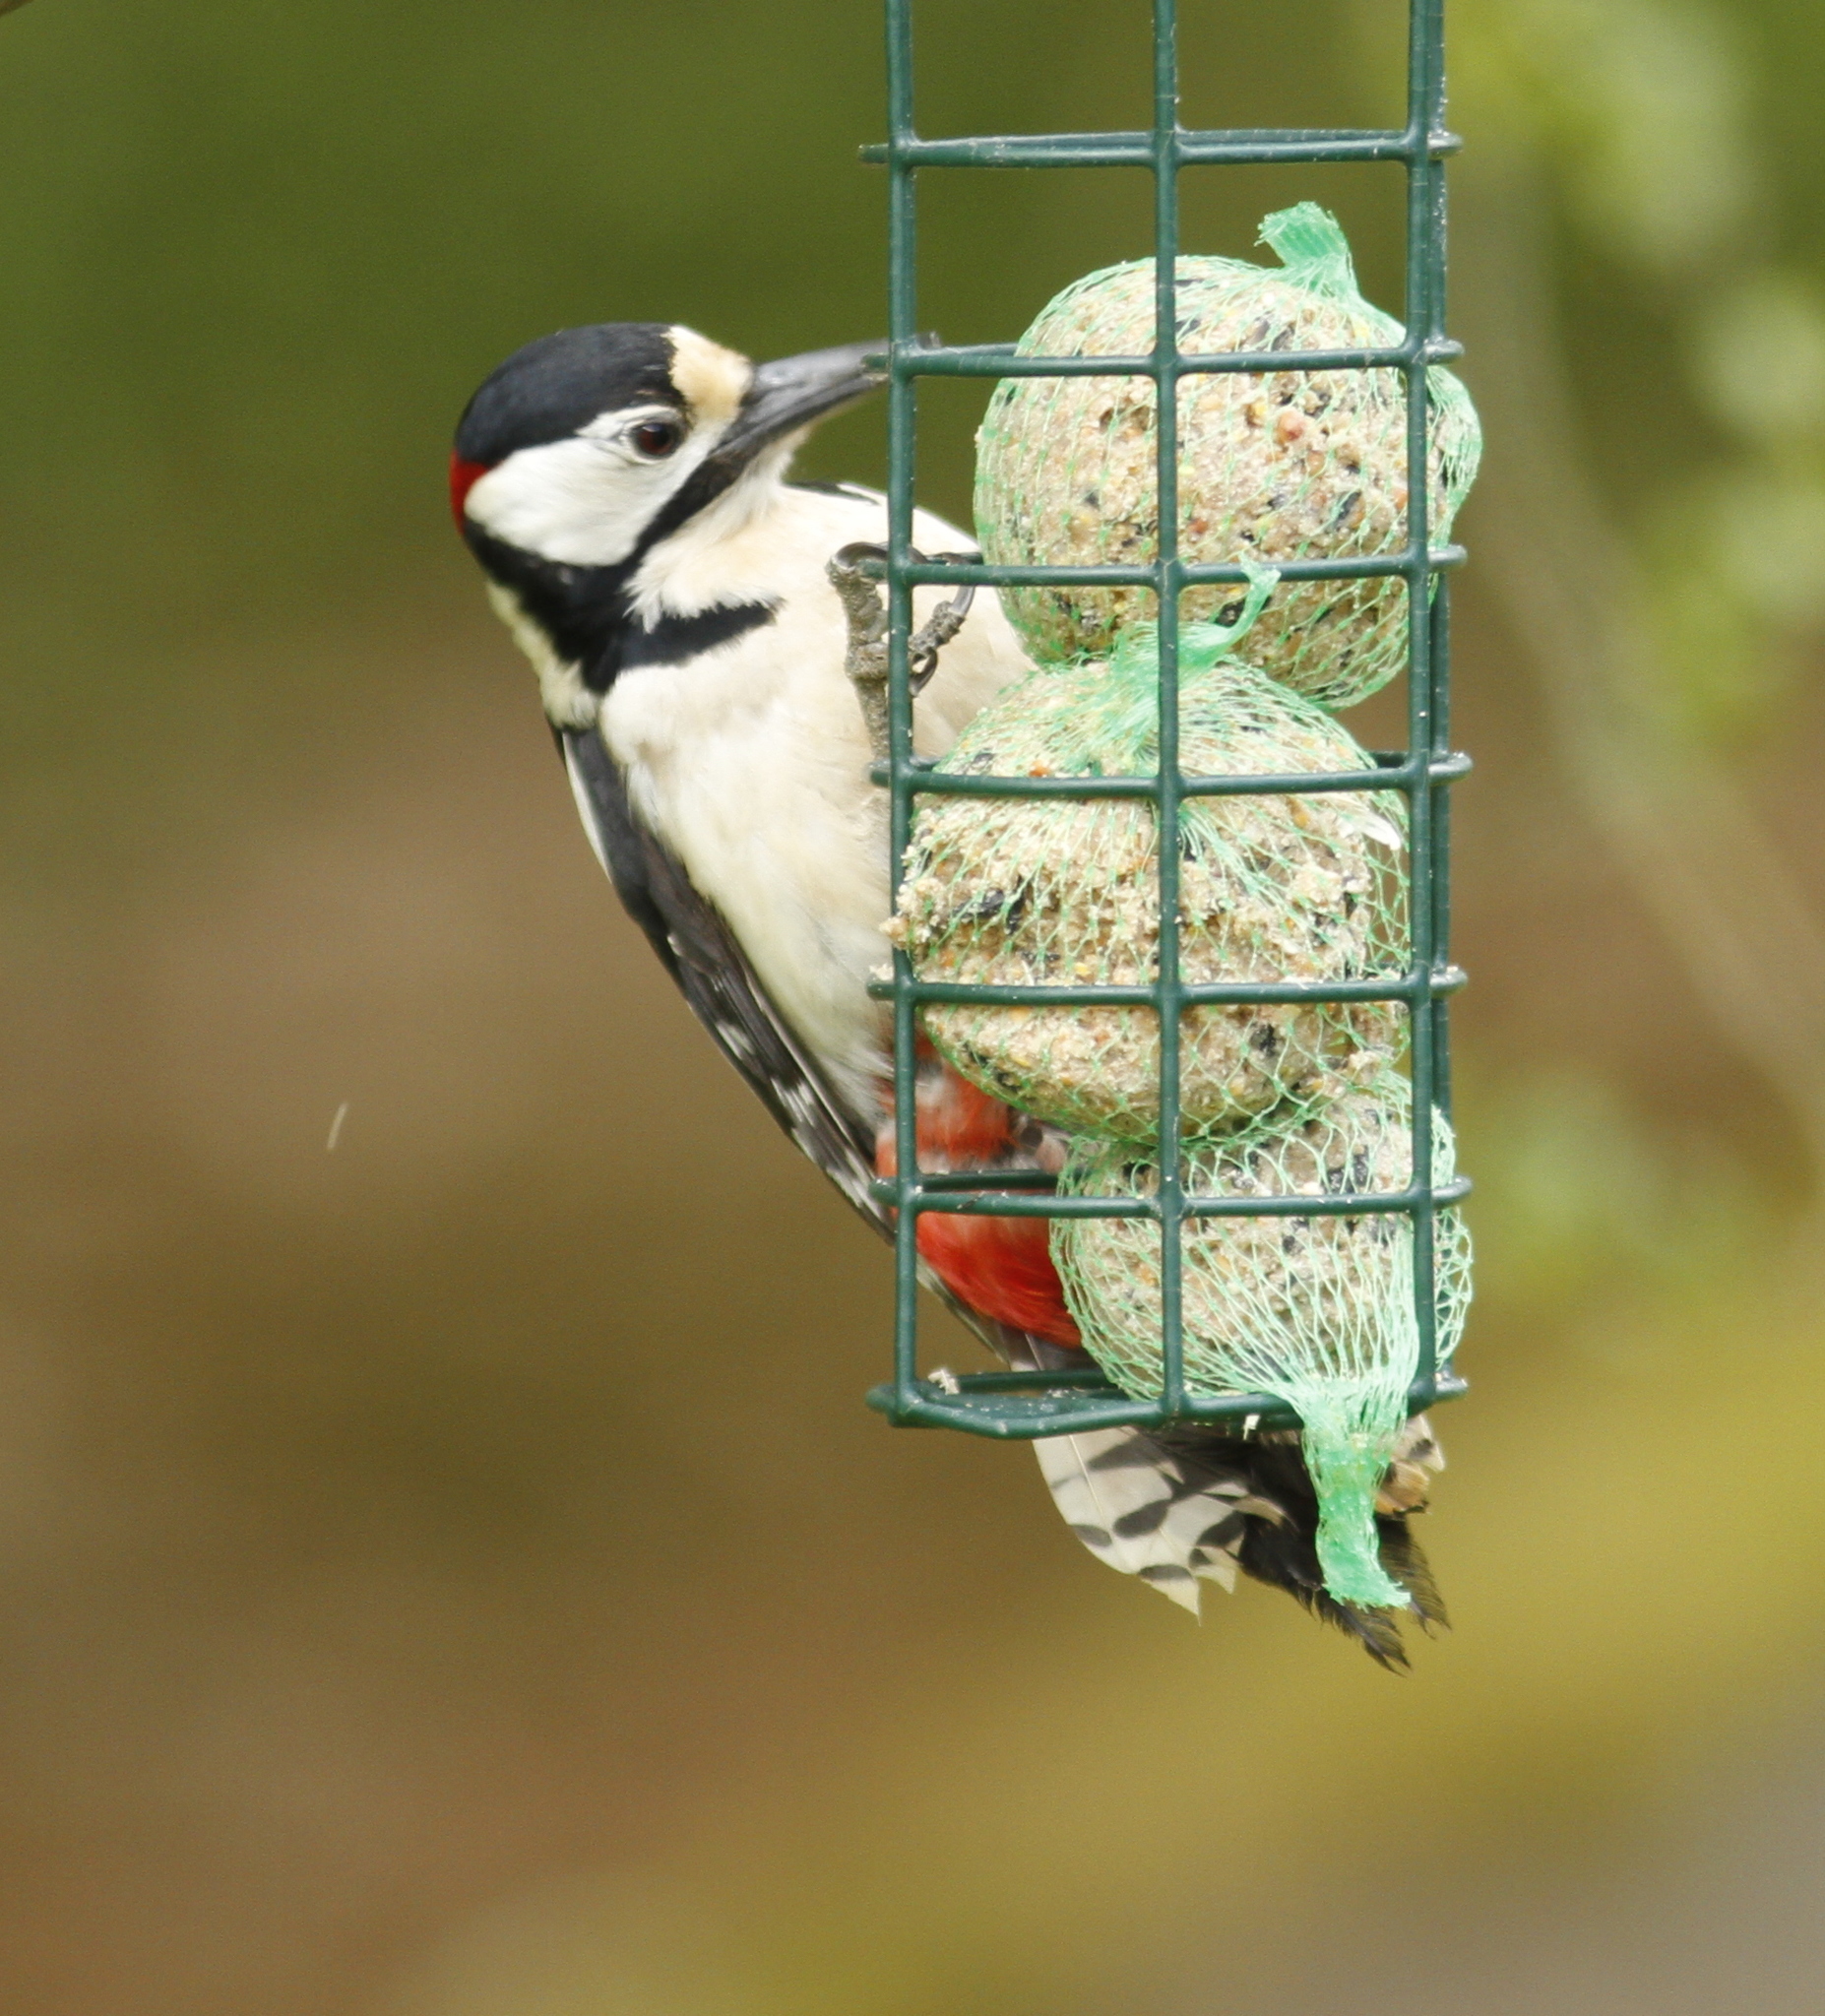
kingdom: Animalia
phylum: Chordata
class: Aves
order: Piciformes
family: Picidae
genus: Dendrocopos
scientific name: Dendrocopos major
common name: Great spotted woodpecker
